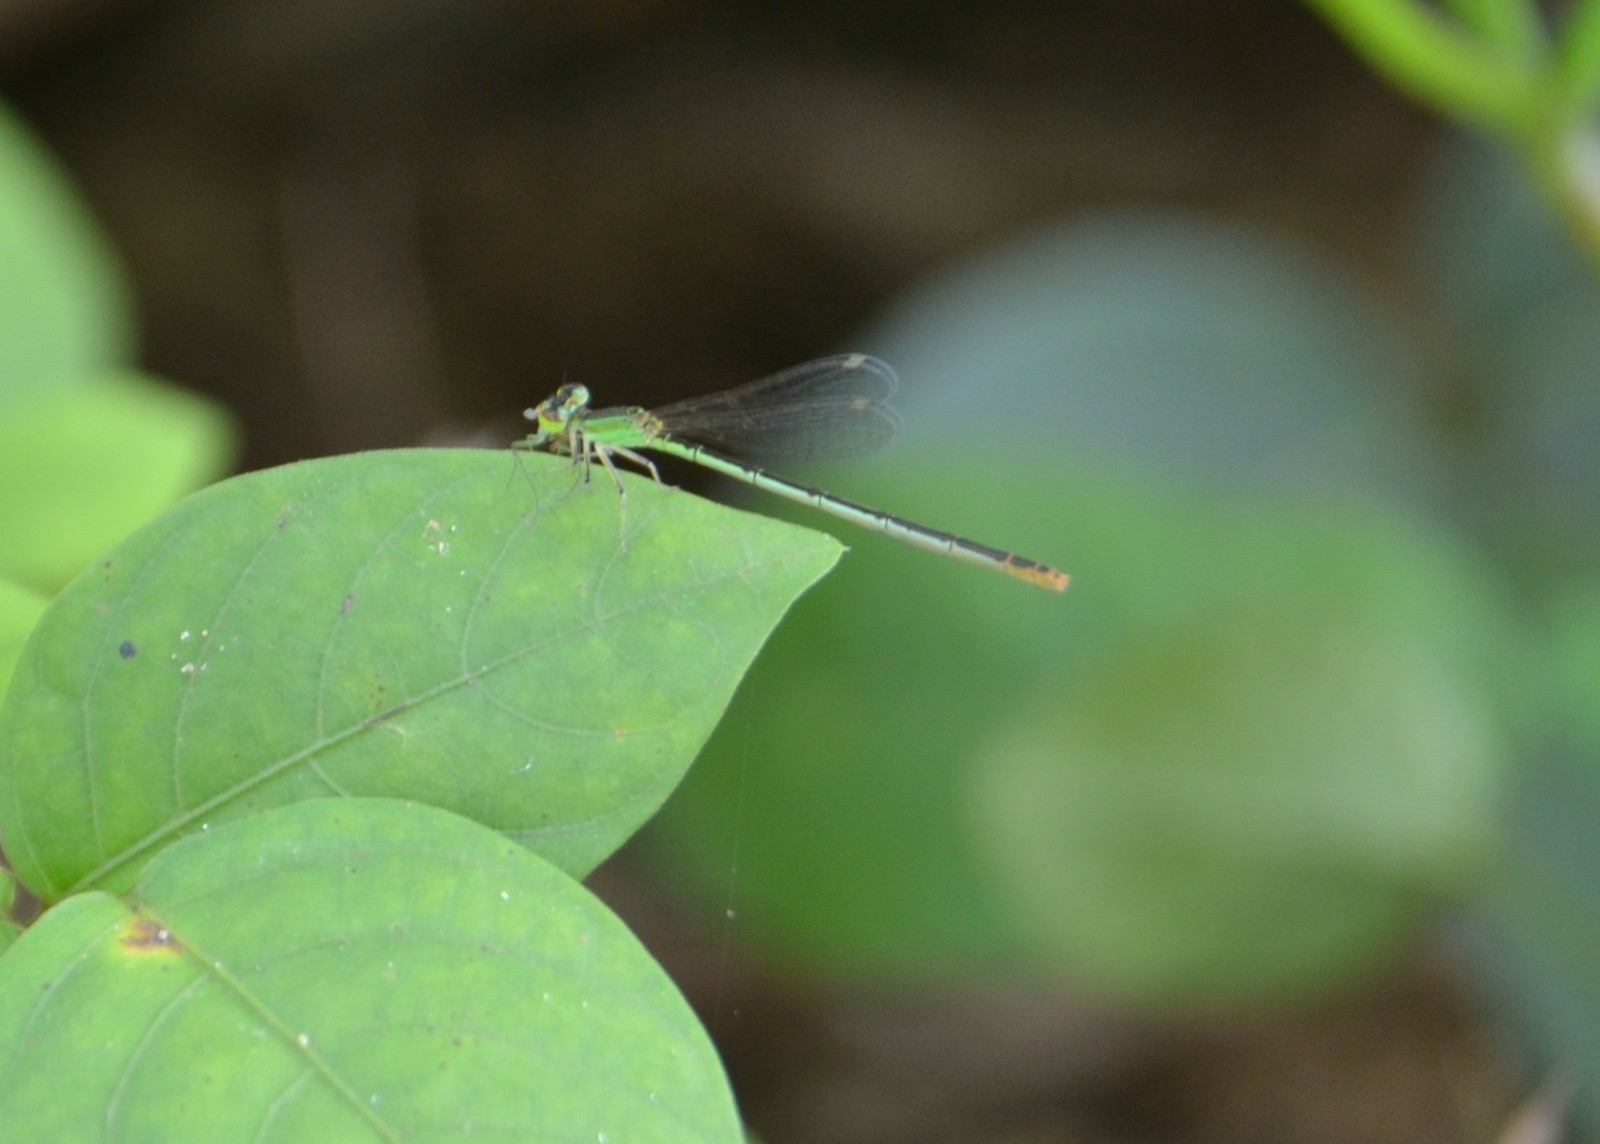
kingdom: Animalia
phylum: Arthropoda
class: Insecta
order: Odonata
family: Coenagrionidae
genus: Agriocnemis
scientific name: Agriocnemis pygmaea
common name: Pygmy wisp
